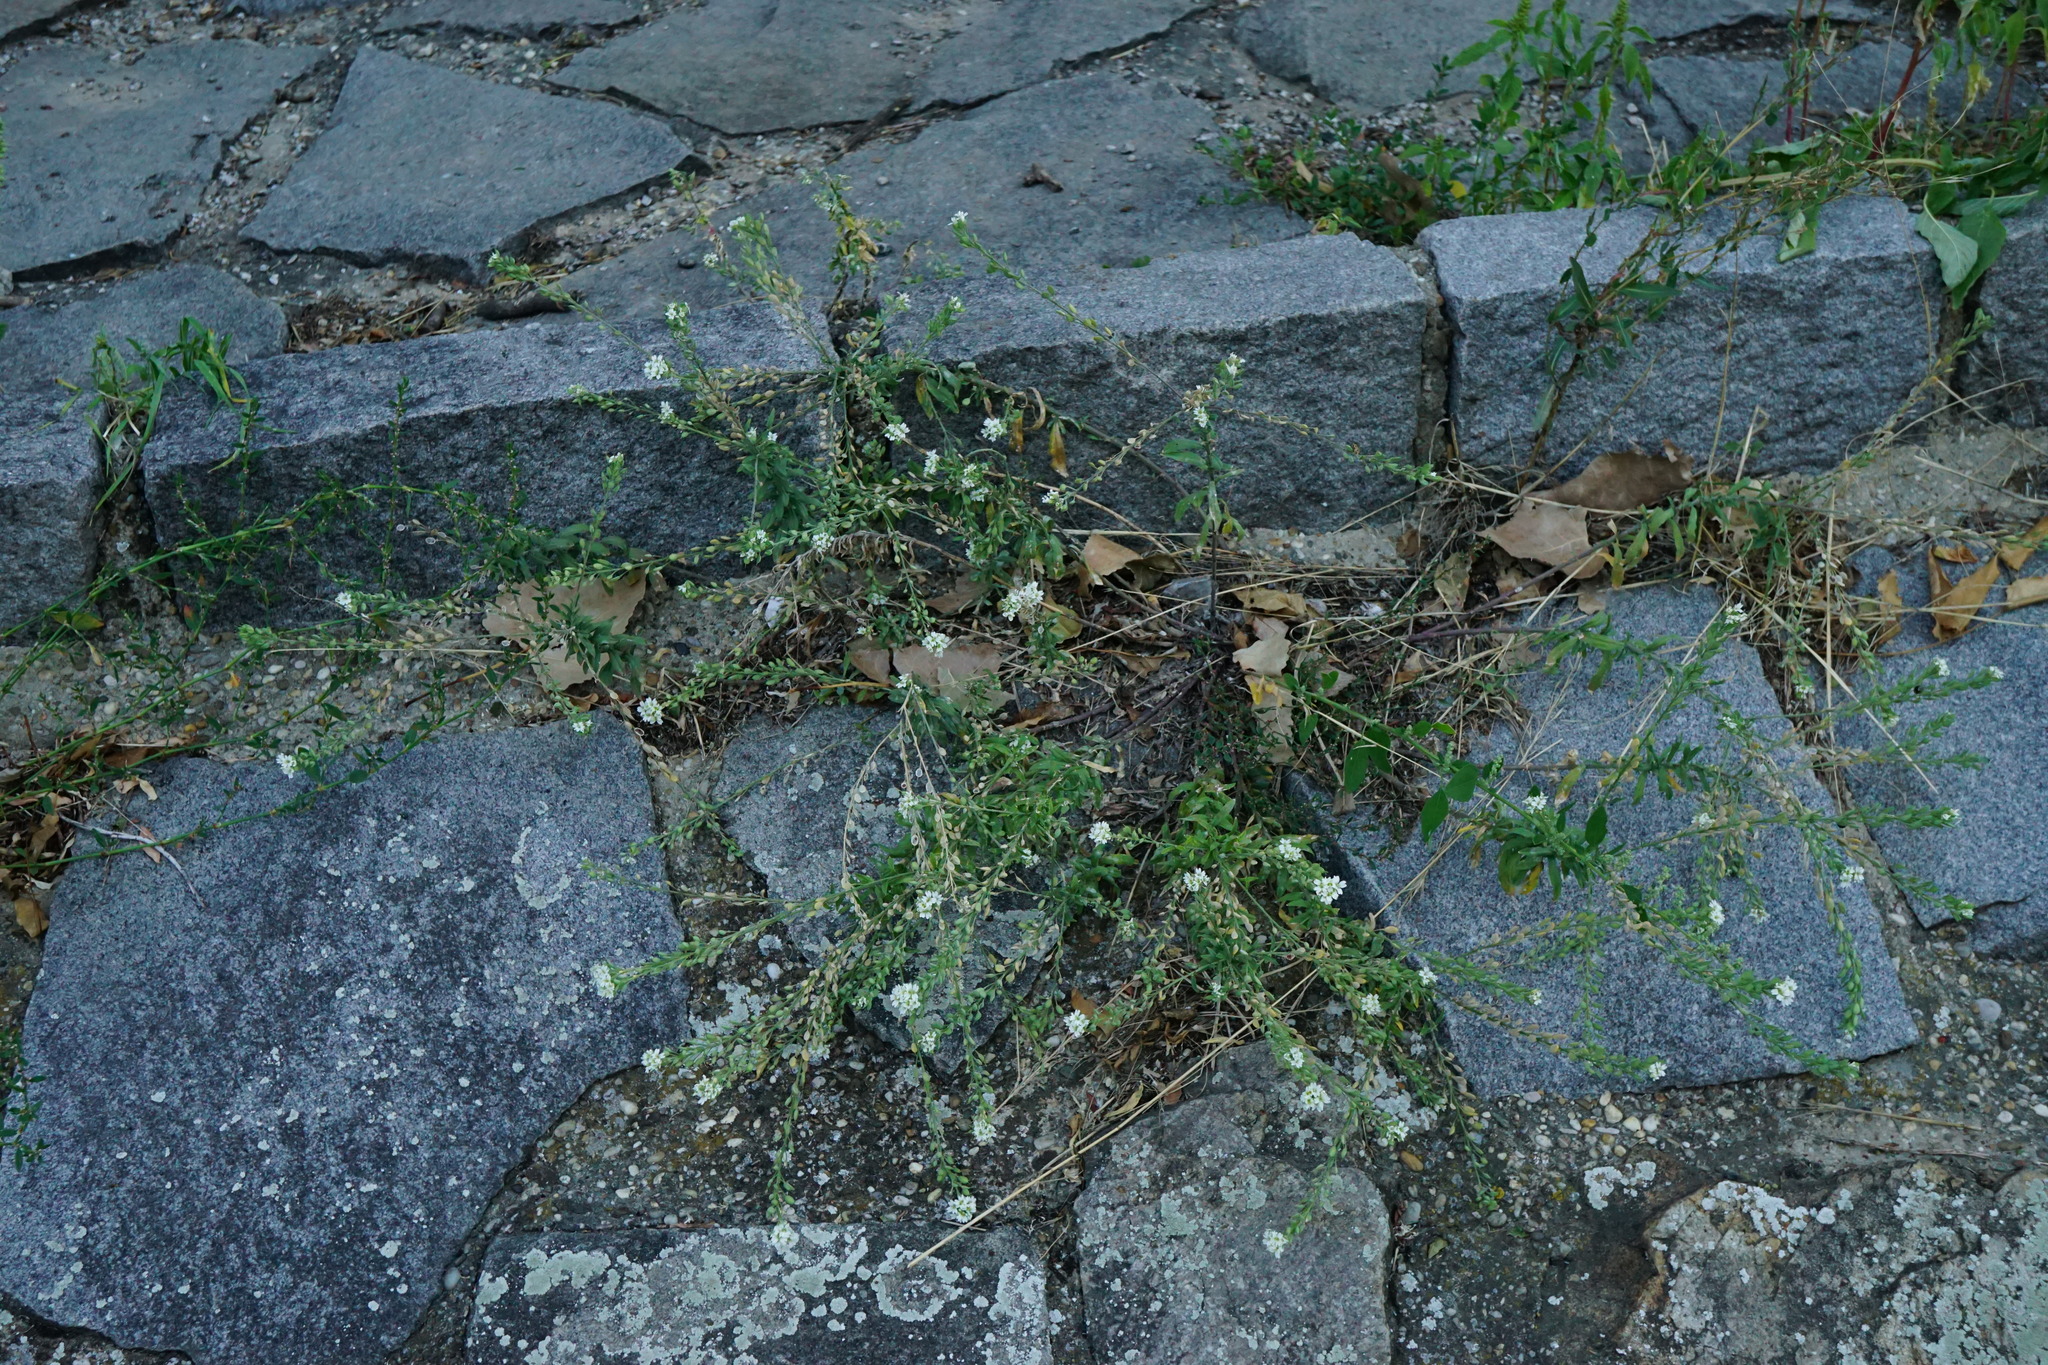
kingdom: Plantae
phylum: Tracheophyta
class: Magnoliopsida
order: Brassicales
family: Brassicaceae
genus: Berteroa
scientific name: Berteroa incana
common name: Hoary alison
